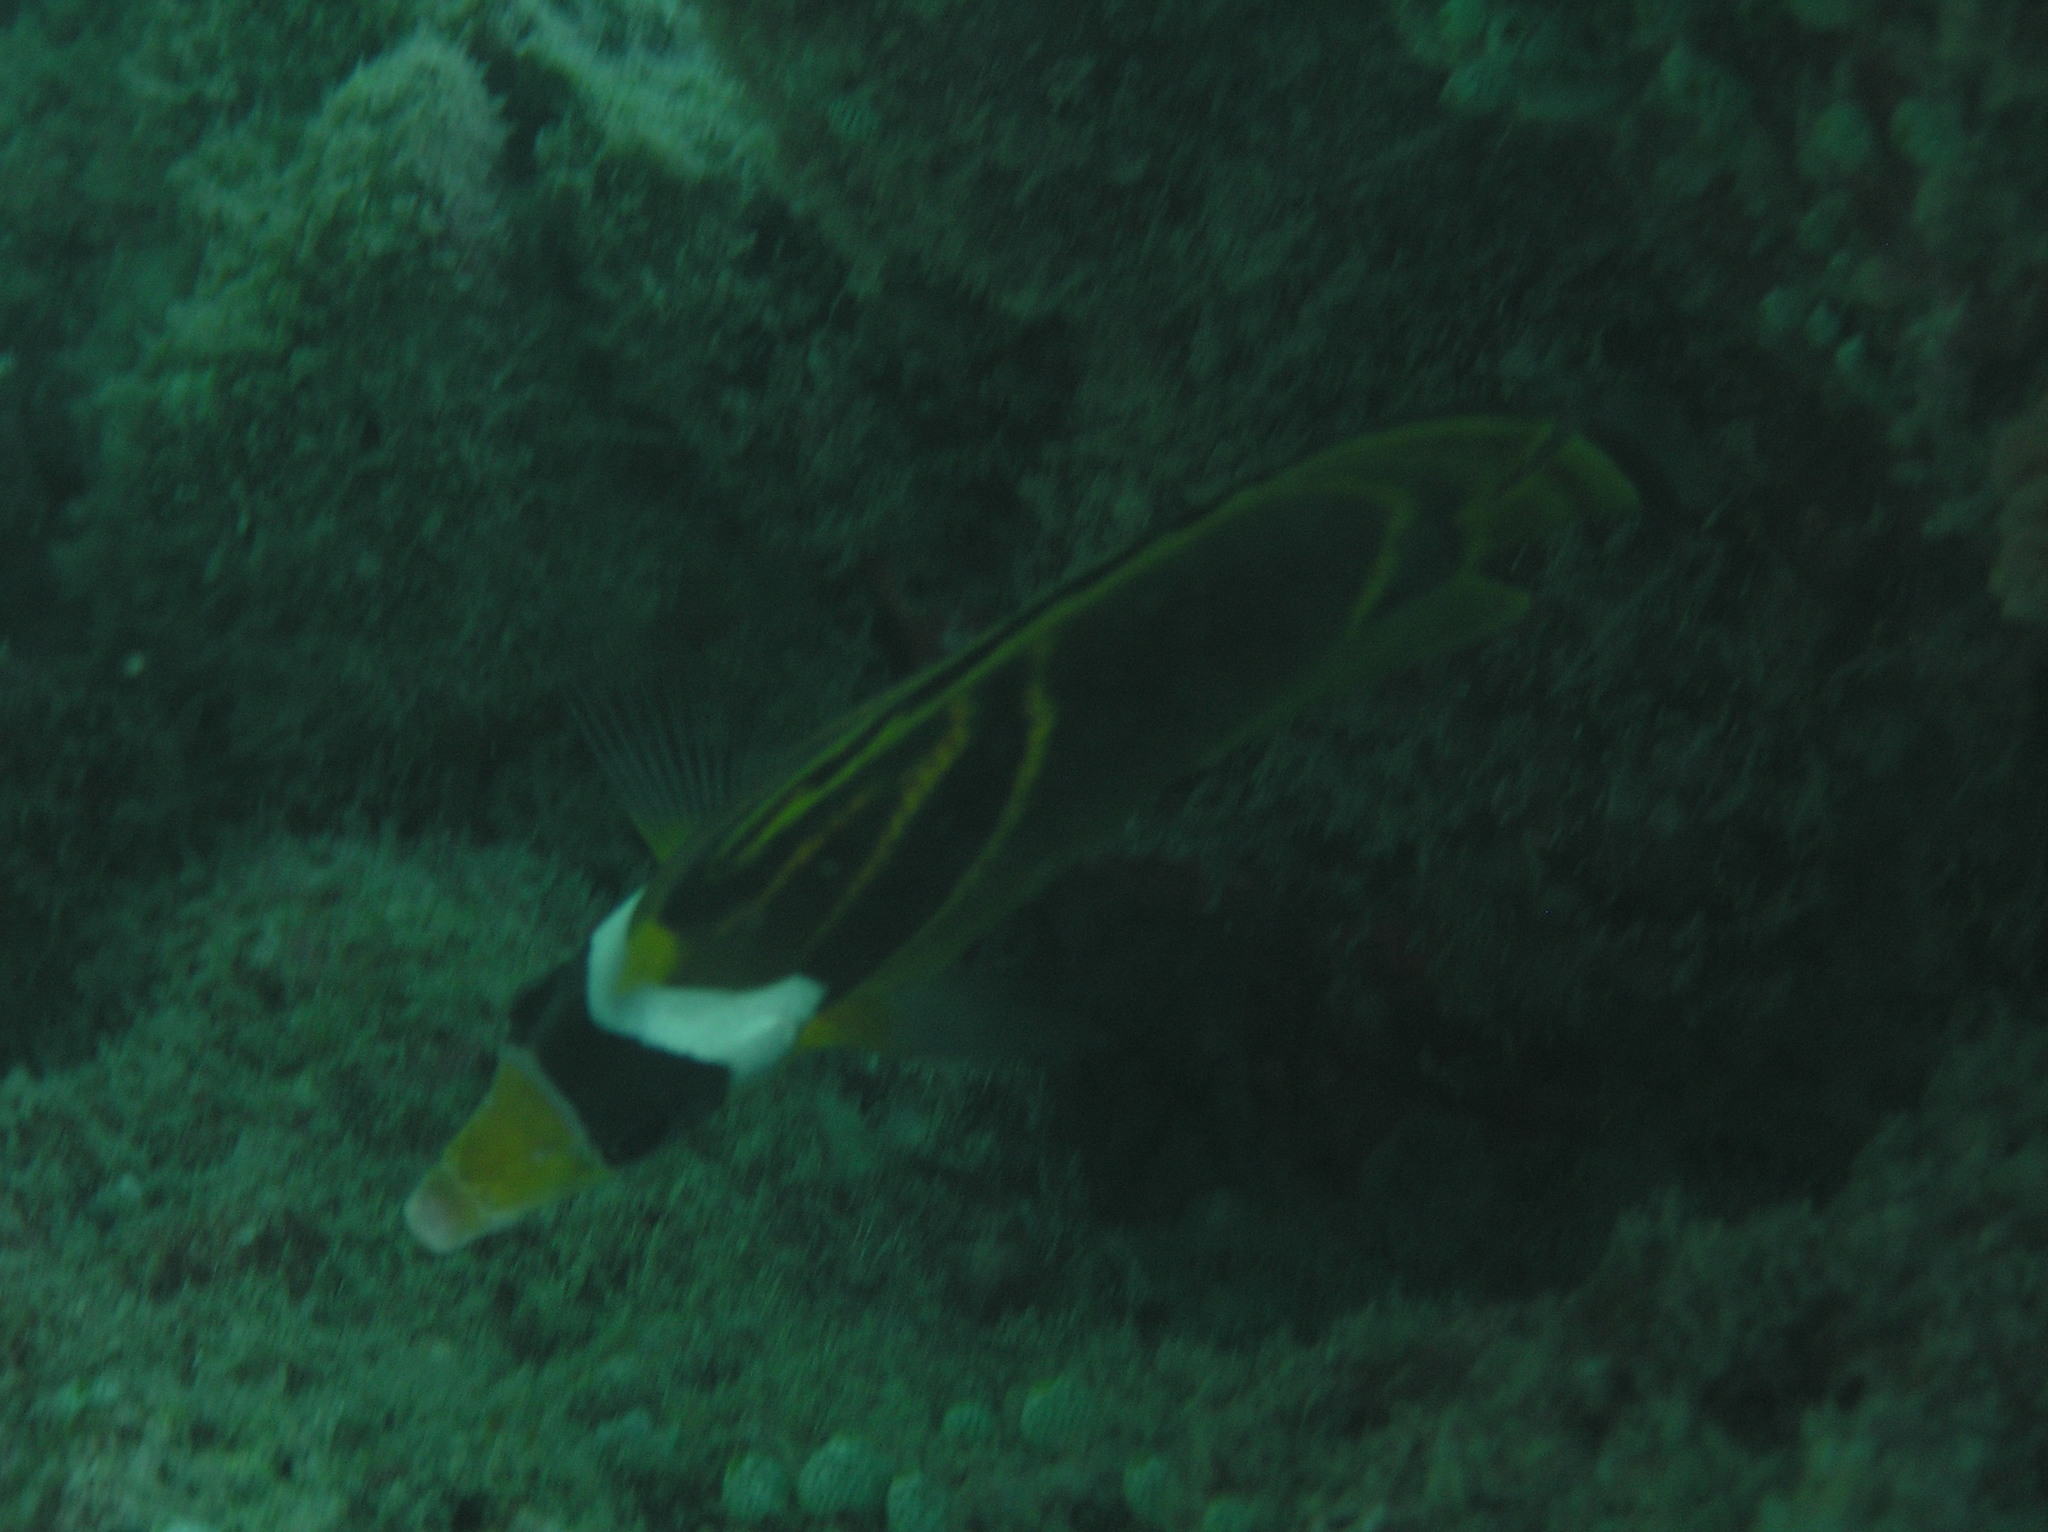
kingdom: Animalia
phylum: Chordata
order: Perciformes
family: Chaetodontidae
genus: Chaetodon
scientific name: Chaetodon lunula
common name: Raccoon butterflyfish
